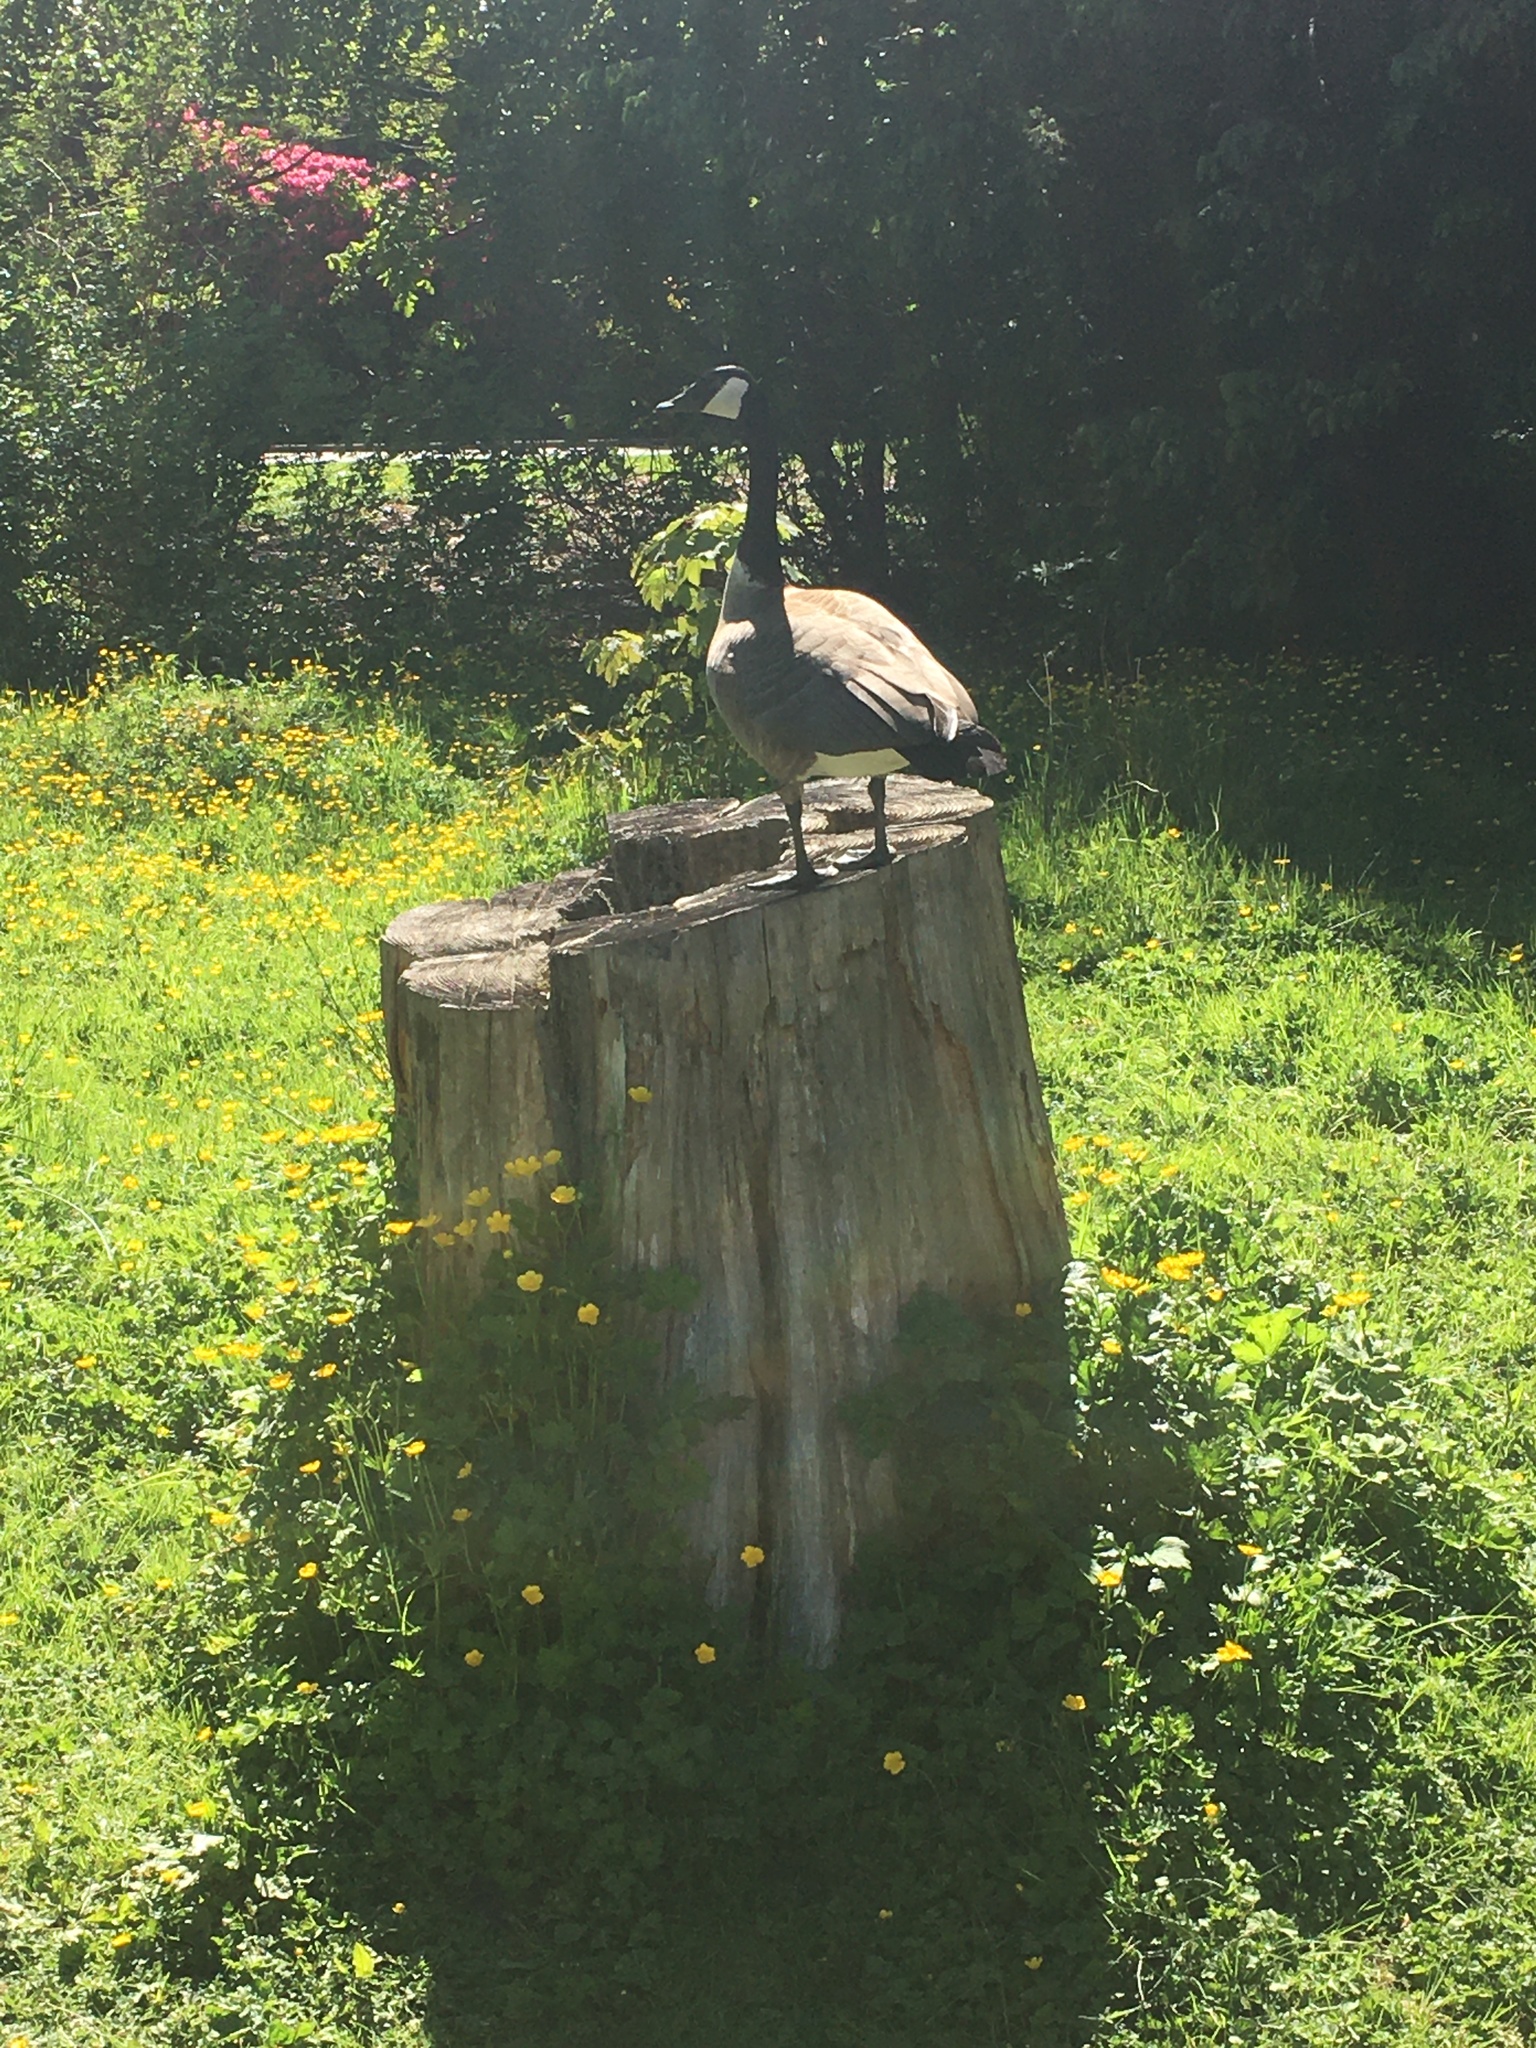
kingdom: Animalia
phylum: Chordata
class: Aves
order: Anseriformes
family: Anatidae
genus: Branta
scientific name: Branta canadensis
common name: Canada goose
